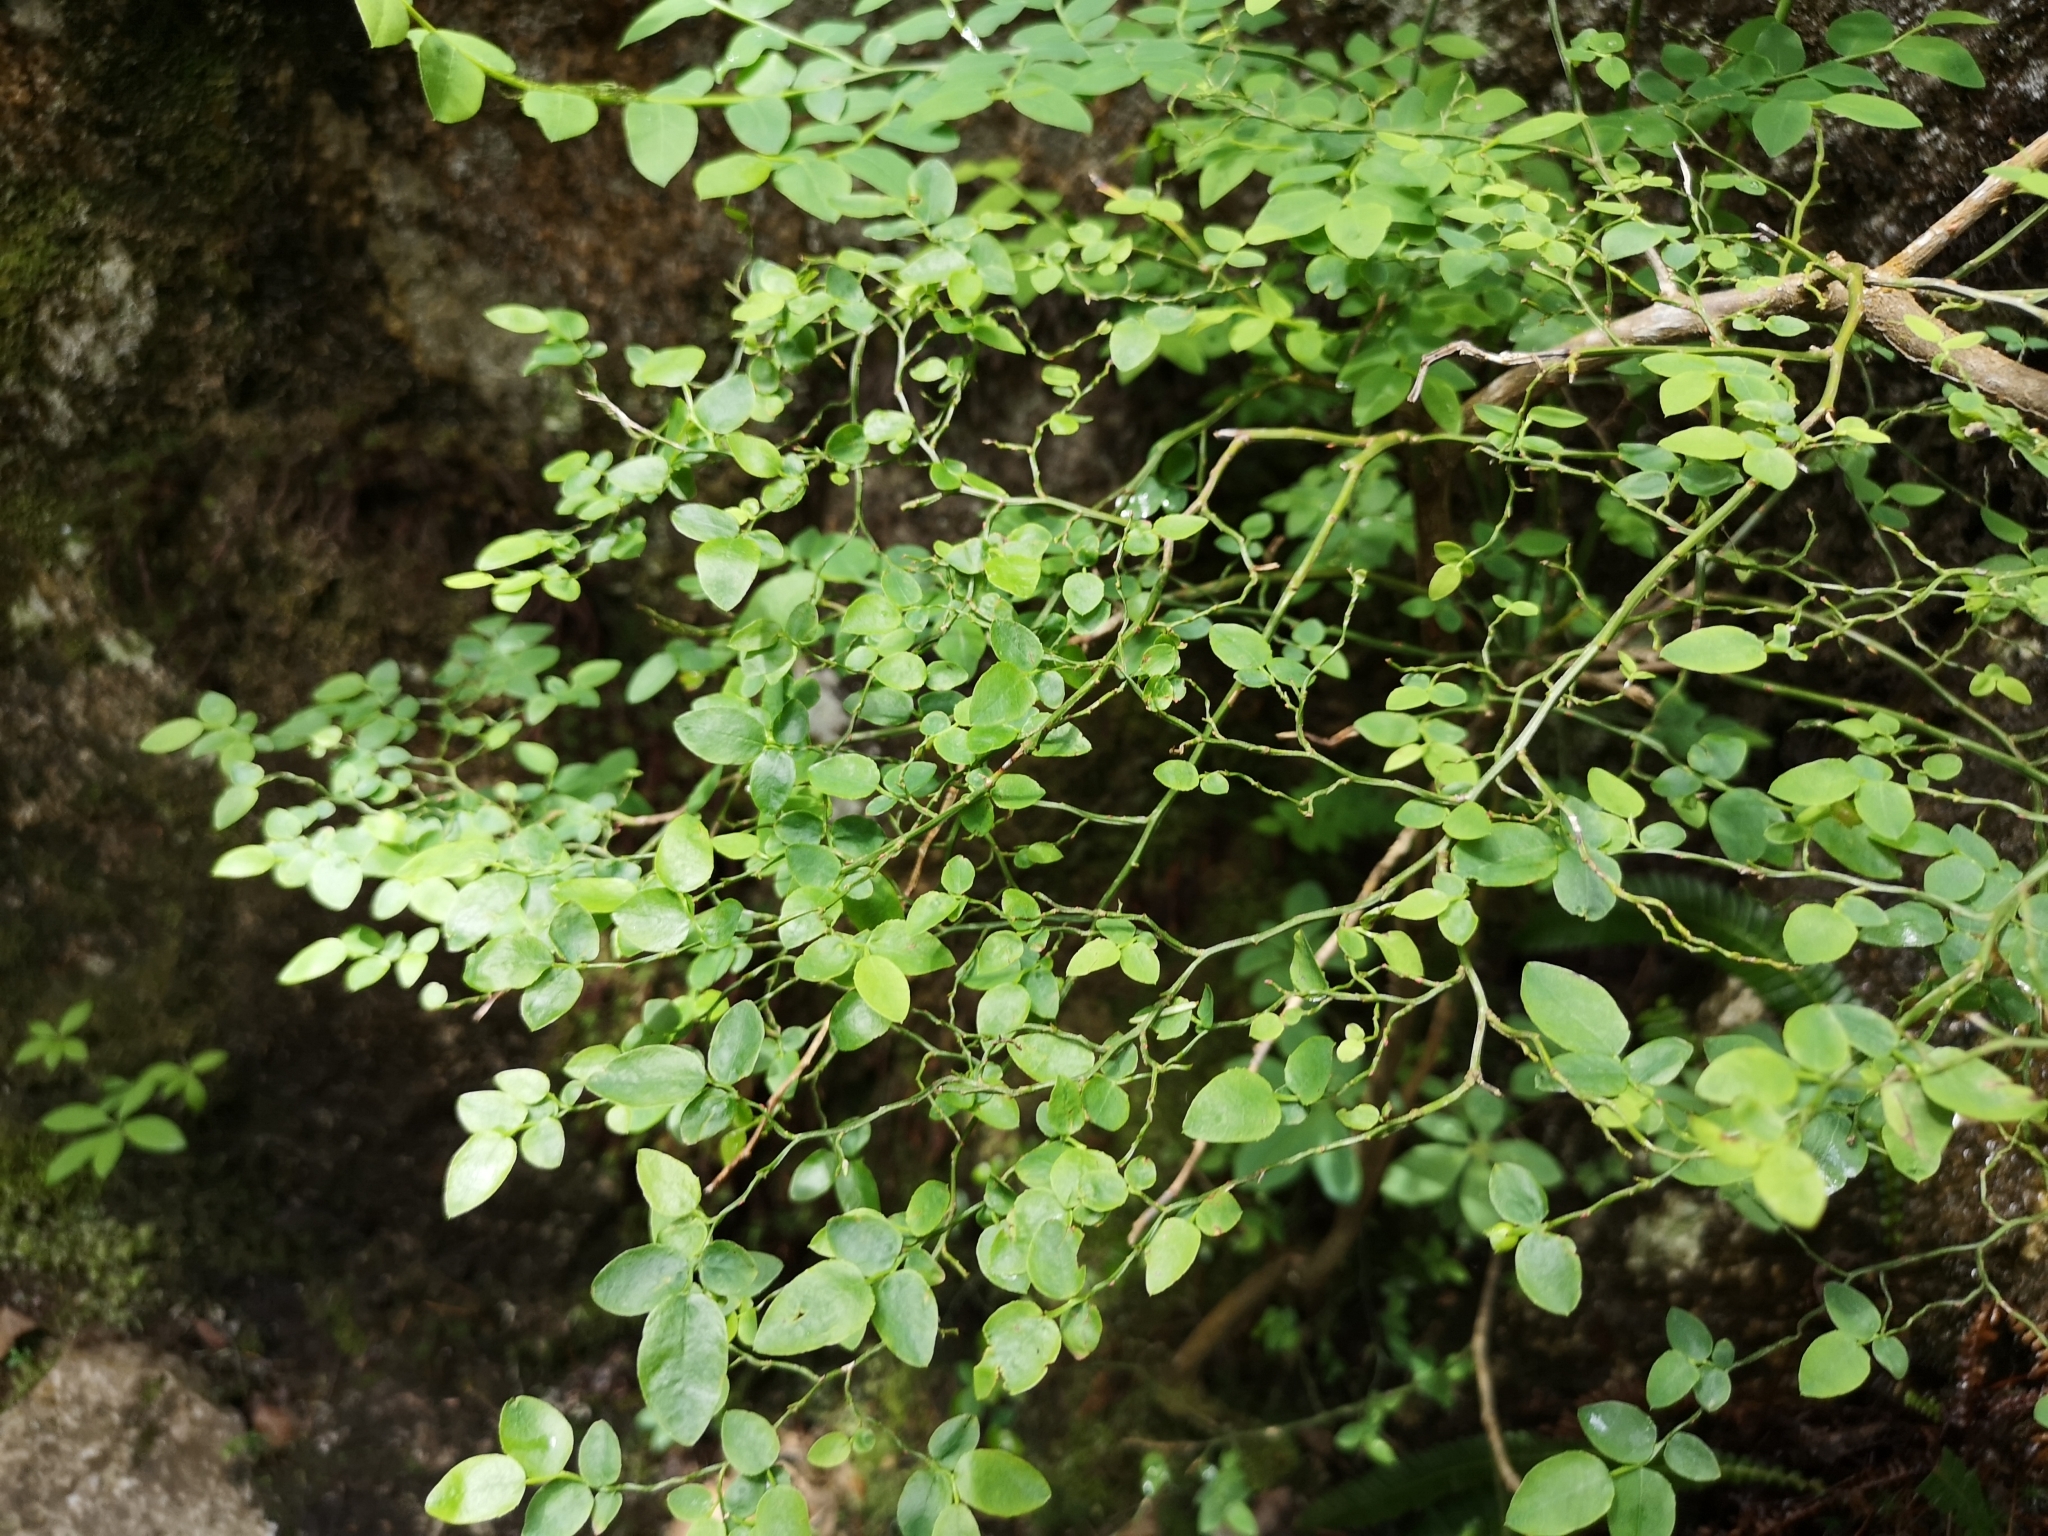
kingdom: Plantae
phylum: Tracheophyta
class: Magnoliopsida
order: Ericales
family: Ericaceae
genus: Vaccinium
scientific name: Vaccinium parvifolium
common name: Red-huckleberry
